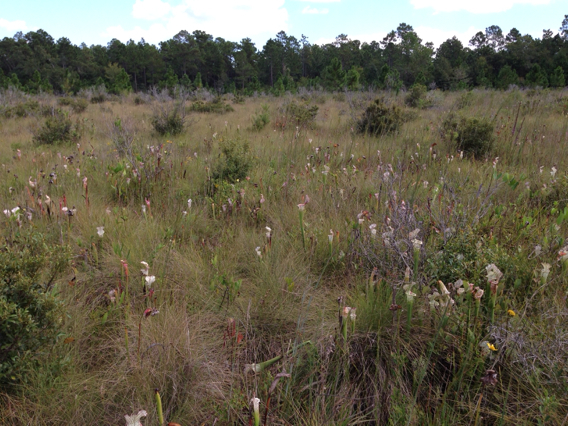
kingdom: Plantae
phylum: Tracheophyta
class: Magnoliopsida
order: Ericales
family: Sarraceniaceae
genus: Sarracenia
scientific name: Sarracenia leucophylla
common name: Purple trumpetleaf
